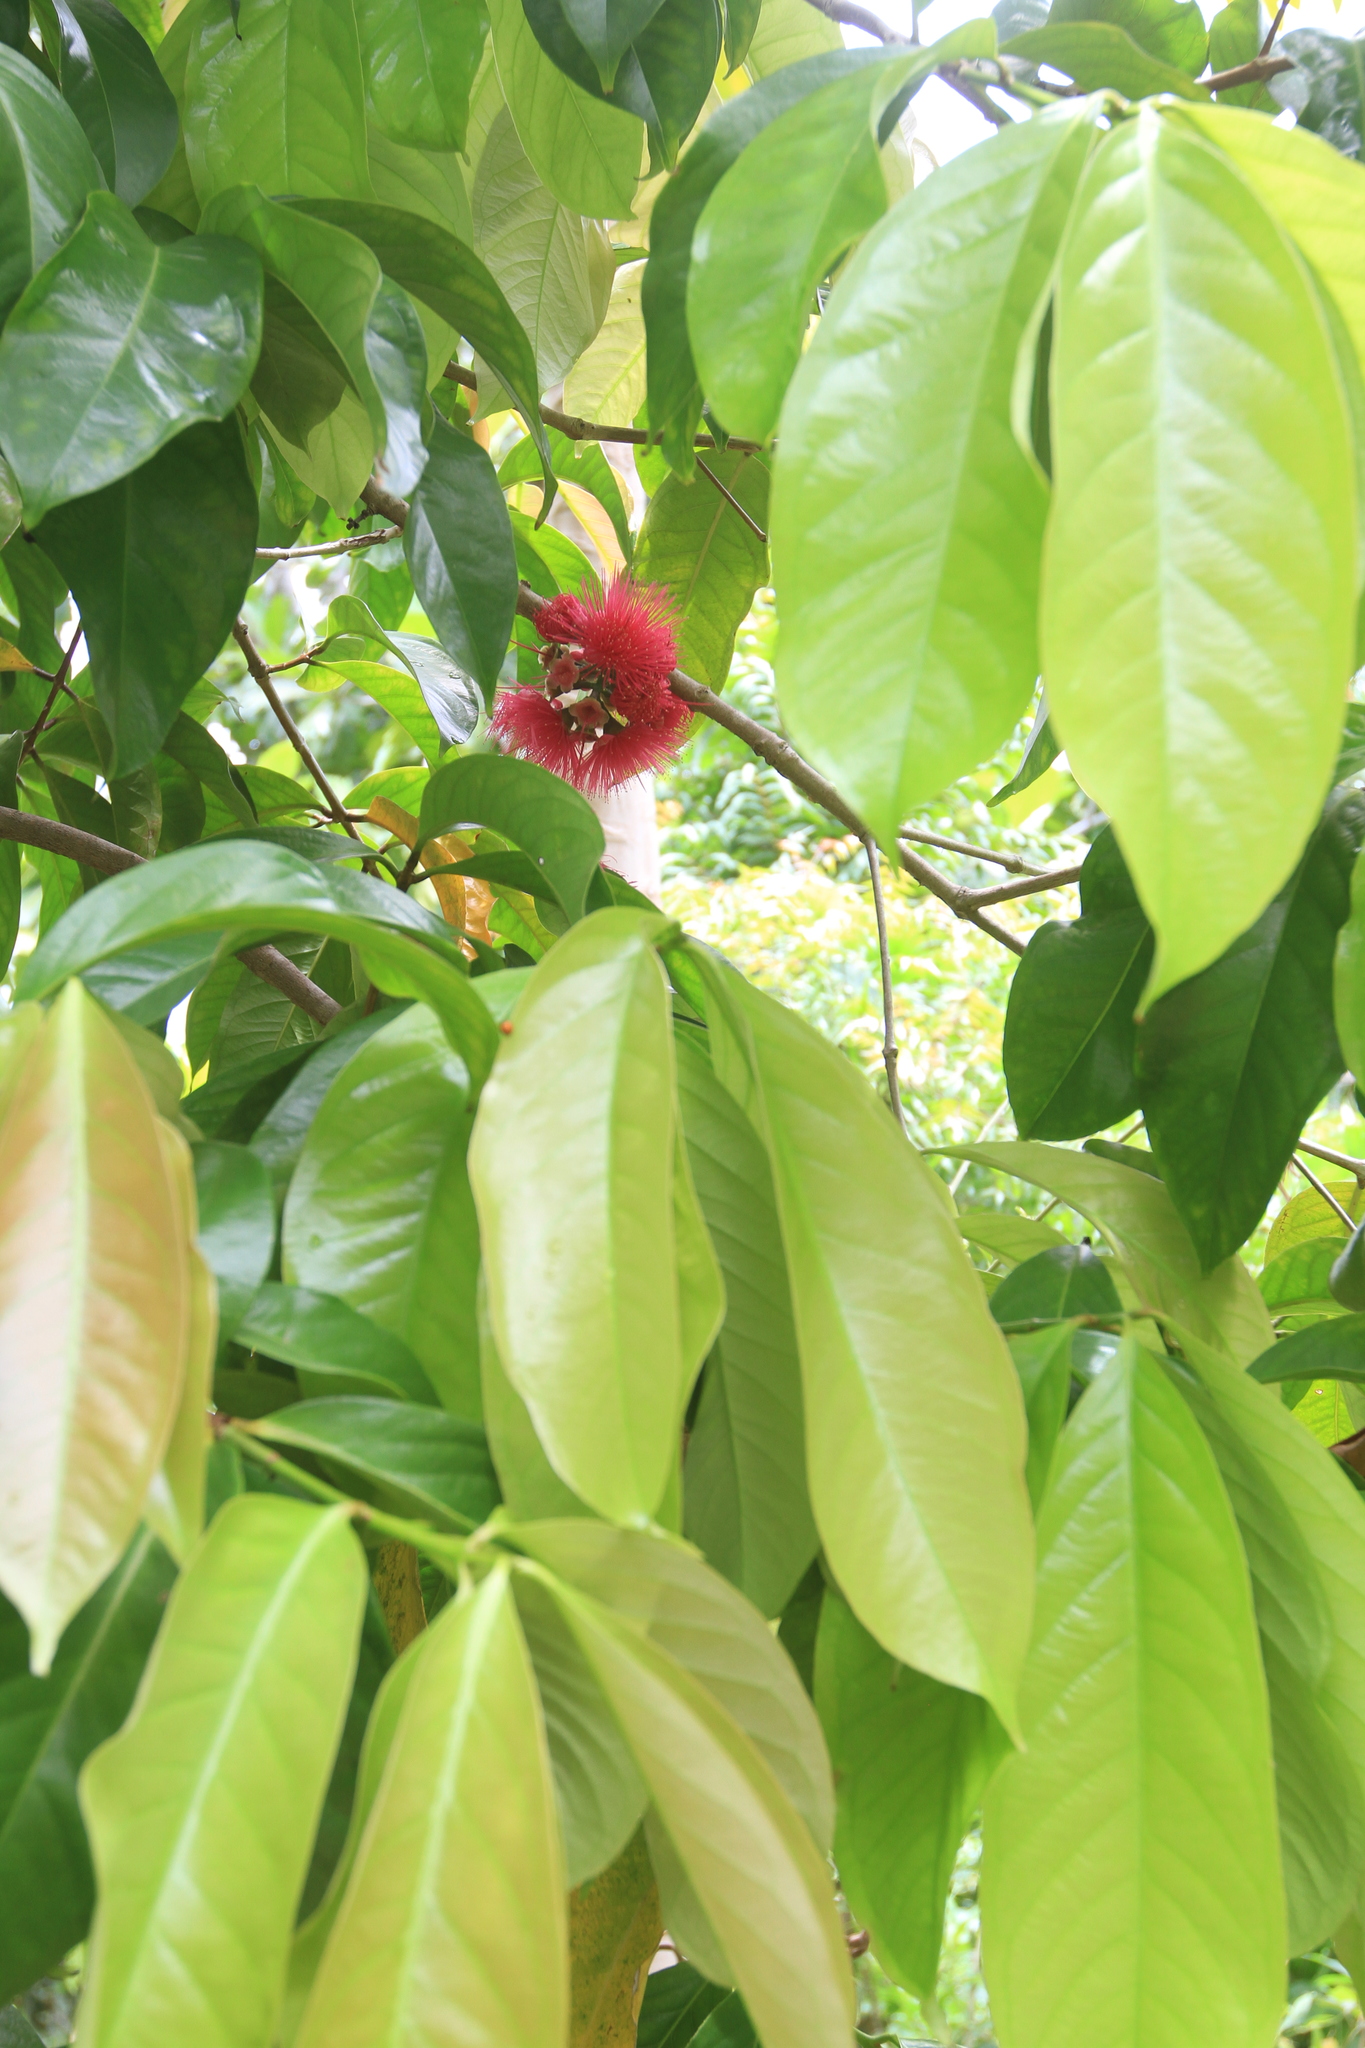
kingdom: Plantae
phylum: Tracheophyta
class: Magnoliopsida
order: Myrtales
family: Myrtaceae
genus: Syzygium
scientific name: Syzygium malaccense
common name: Malaysian apple
